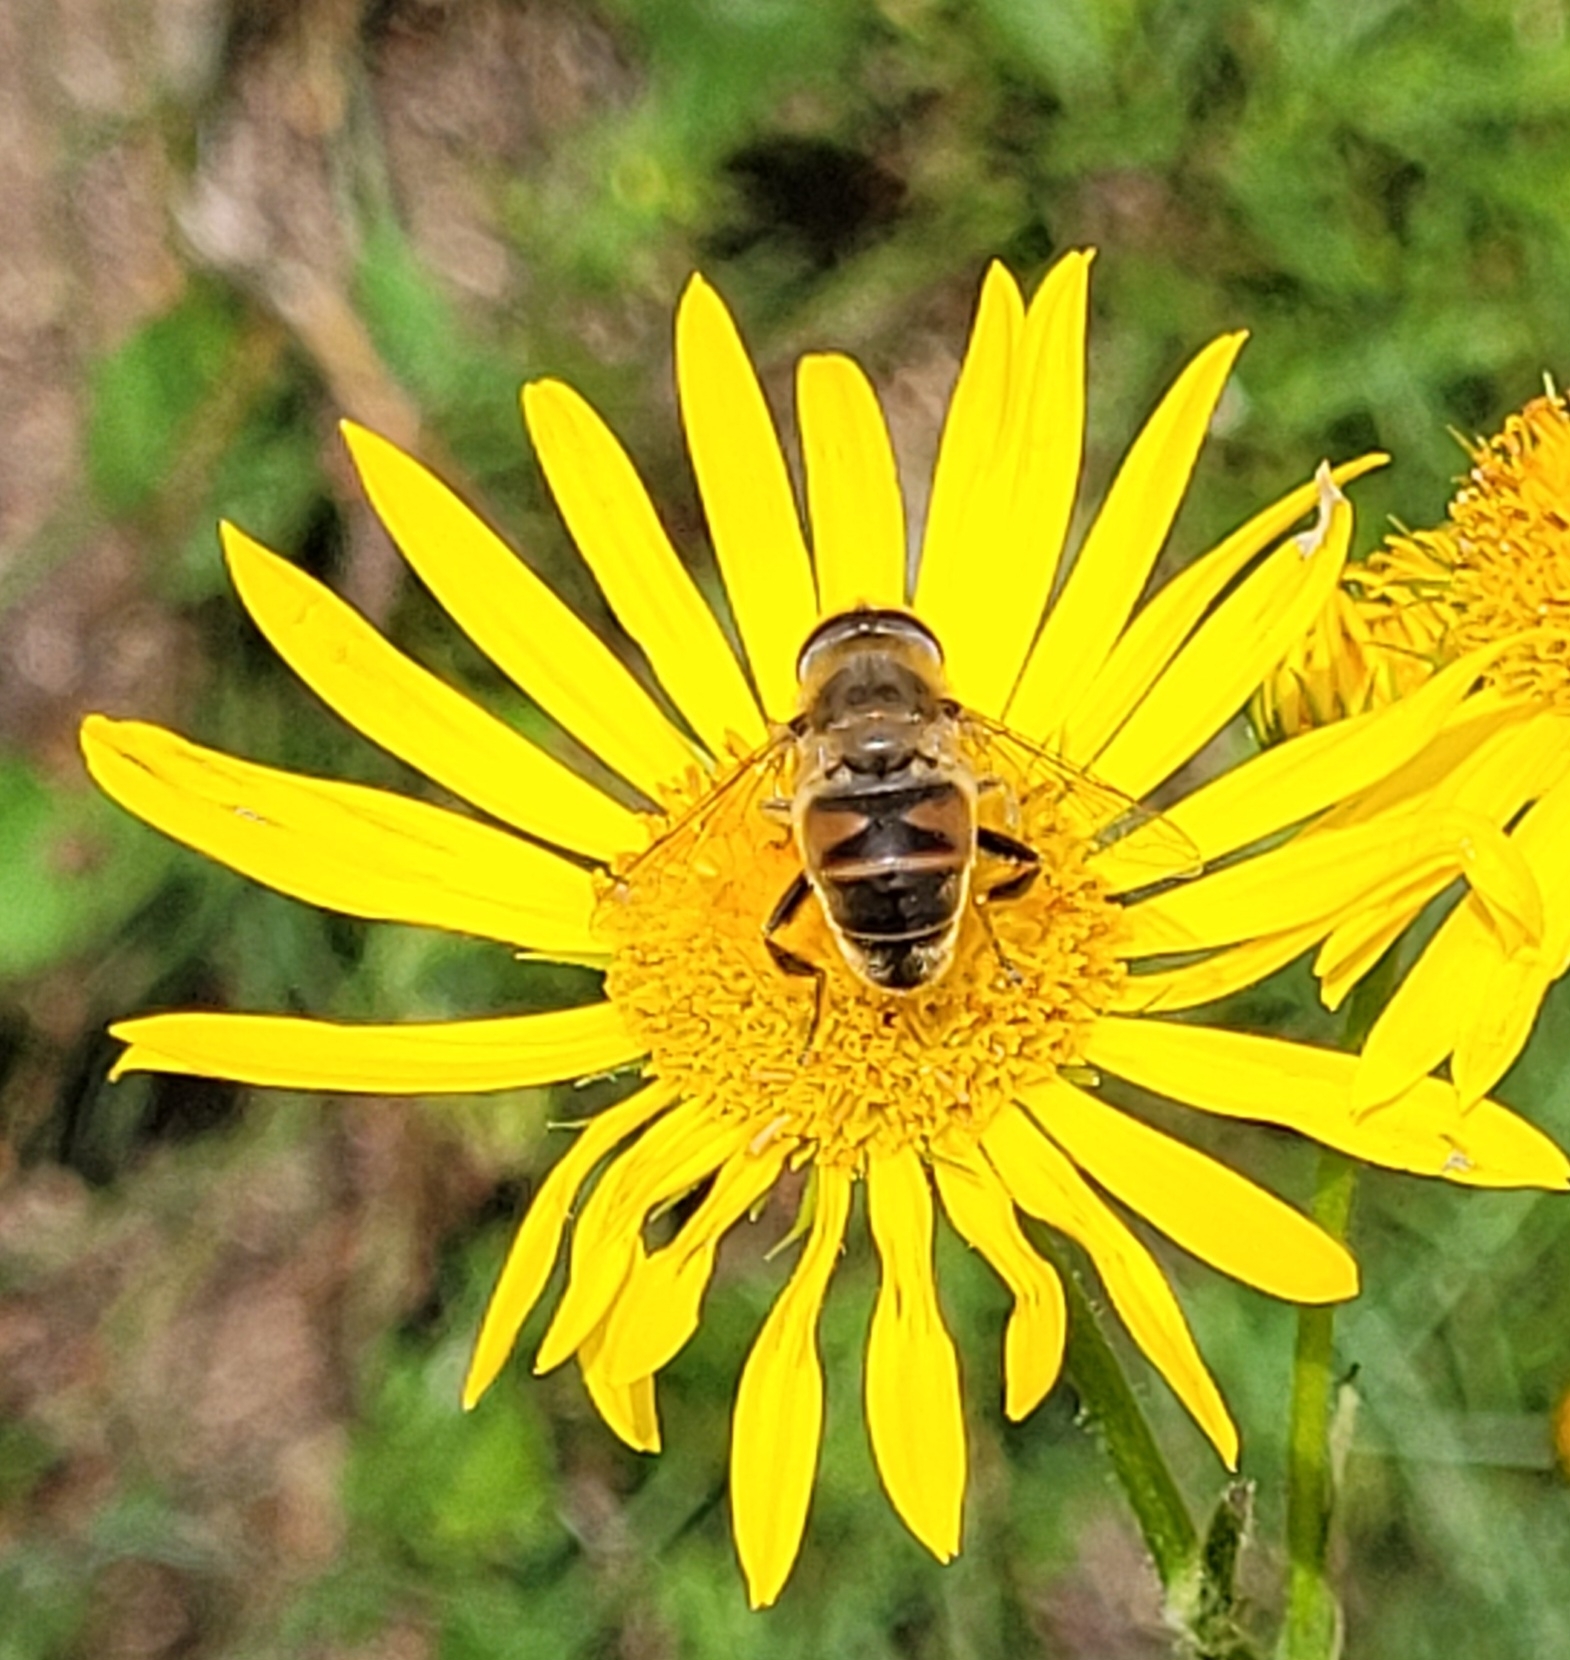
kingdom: Animalia
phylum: Arthropoda
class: Insecta
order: Diptera
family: Syrphidae
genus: Eristalis
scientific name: Eristalis tenax
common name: Drone fly
